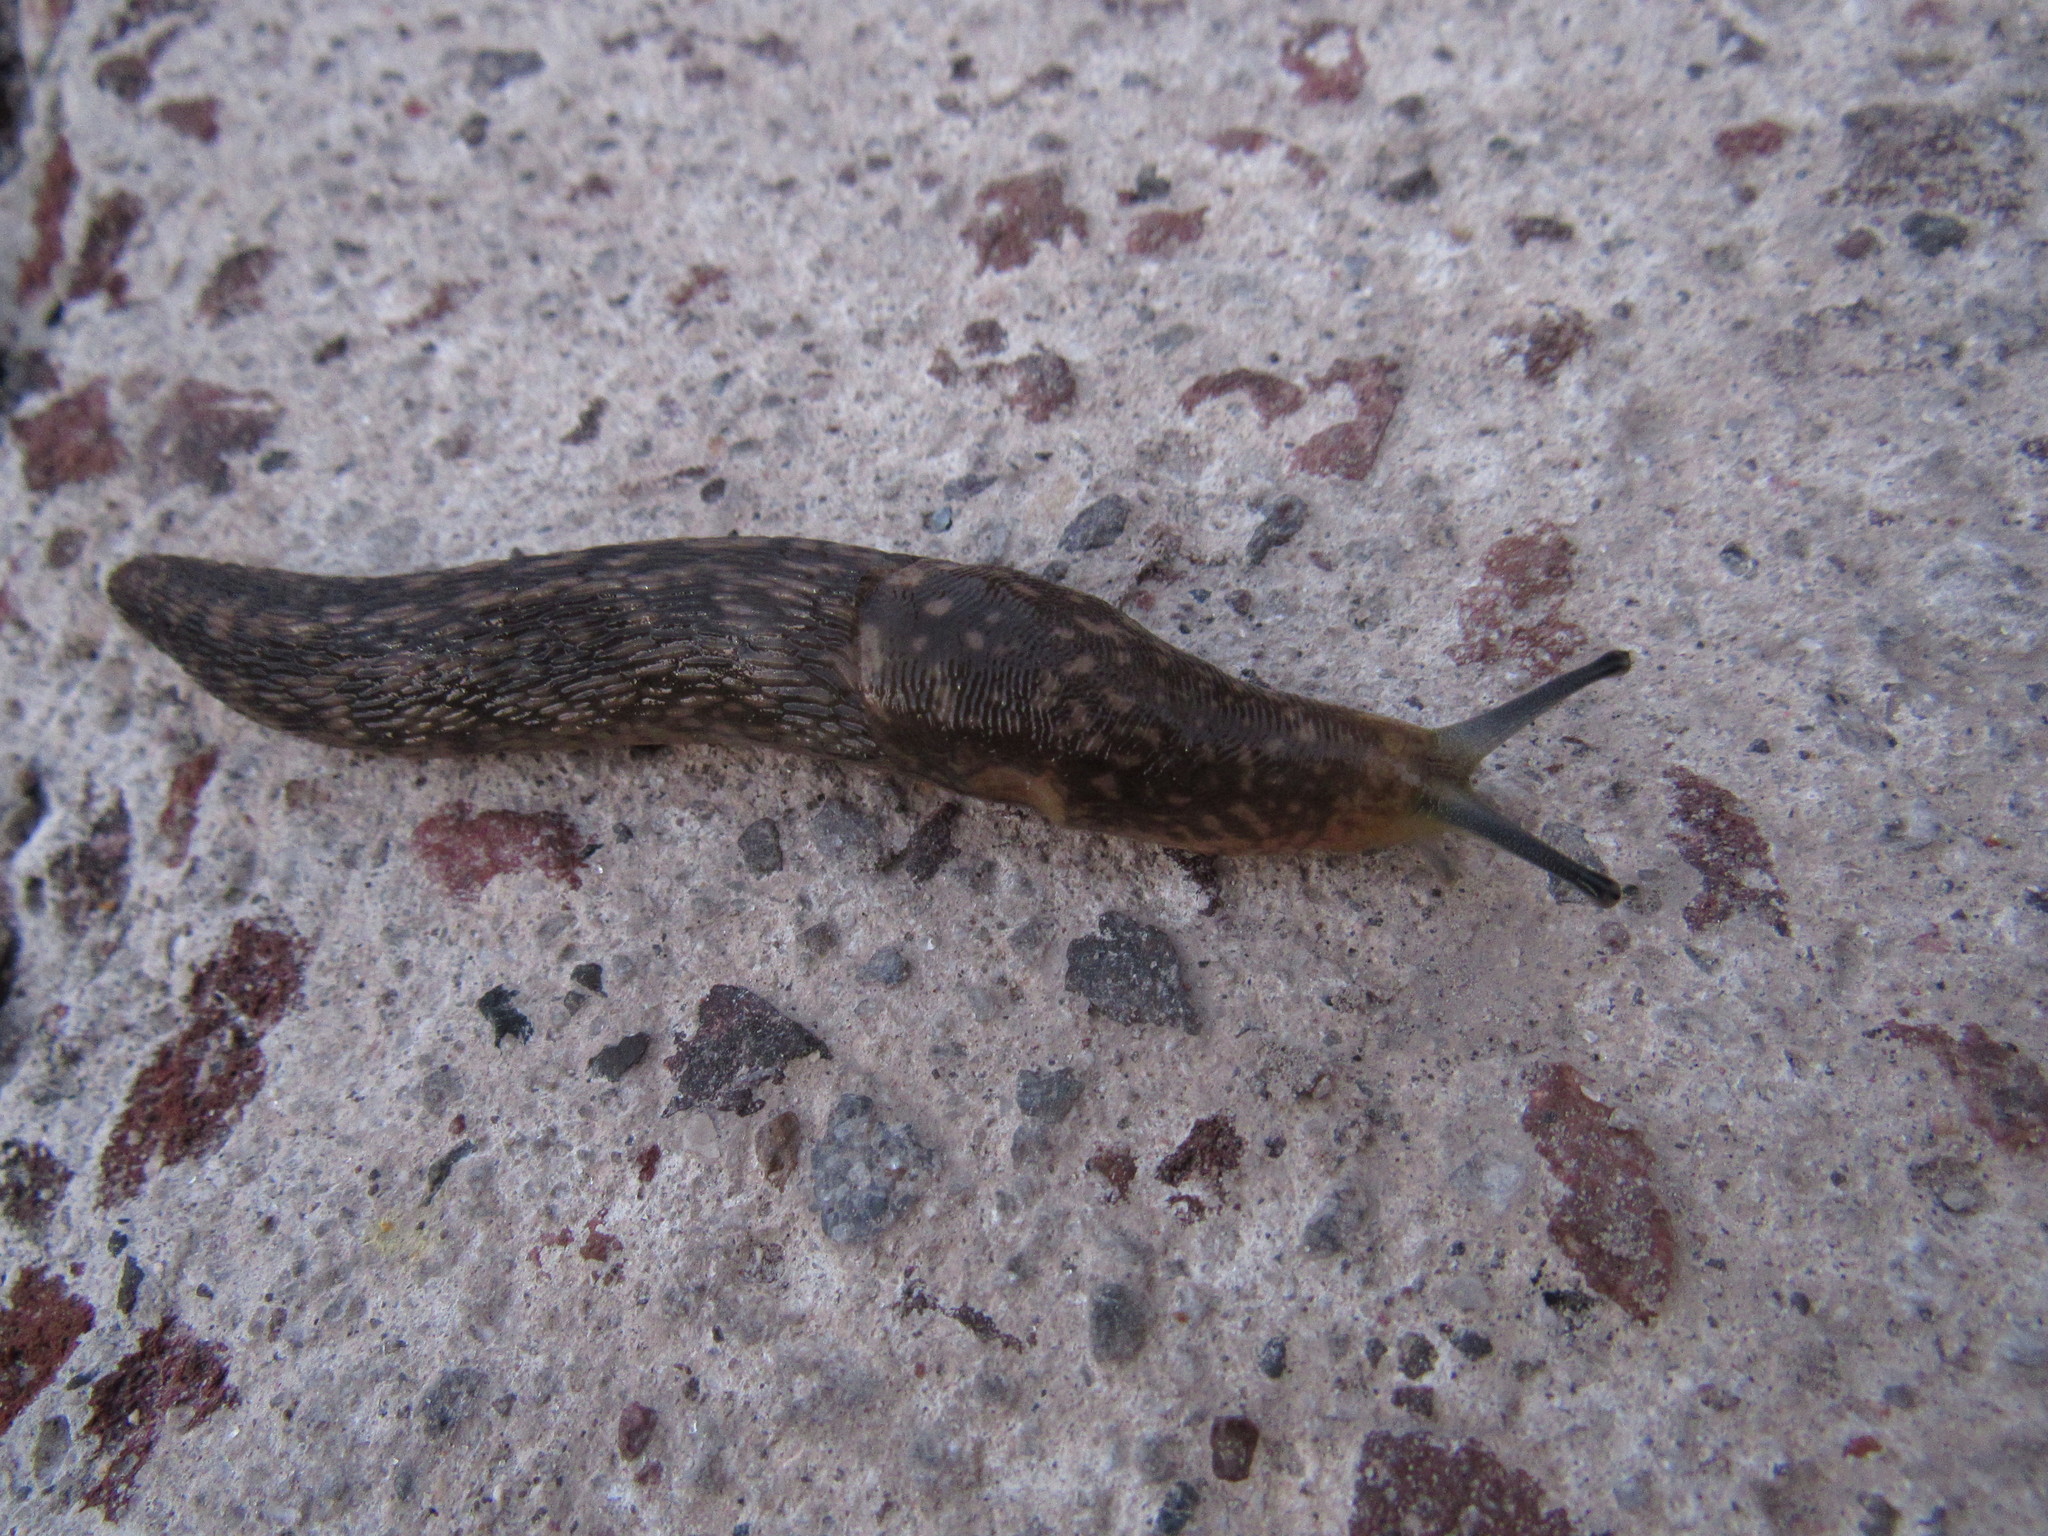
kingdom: Animalia
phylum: Mollusca
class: Gastropoda
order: Stylommatophora
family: Limacidae
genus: Limacus
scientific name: Limacus flavus
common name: Yellow gardenslug
